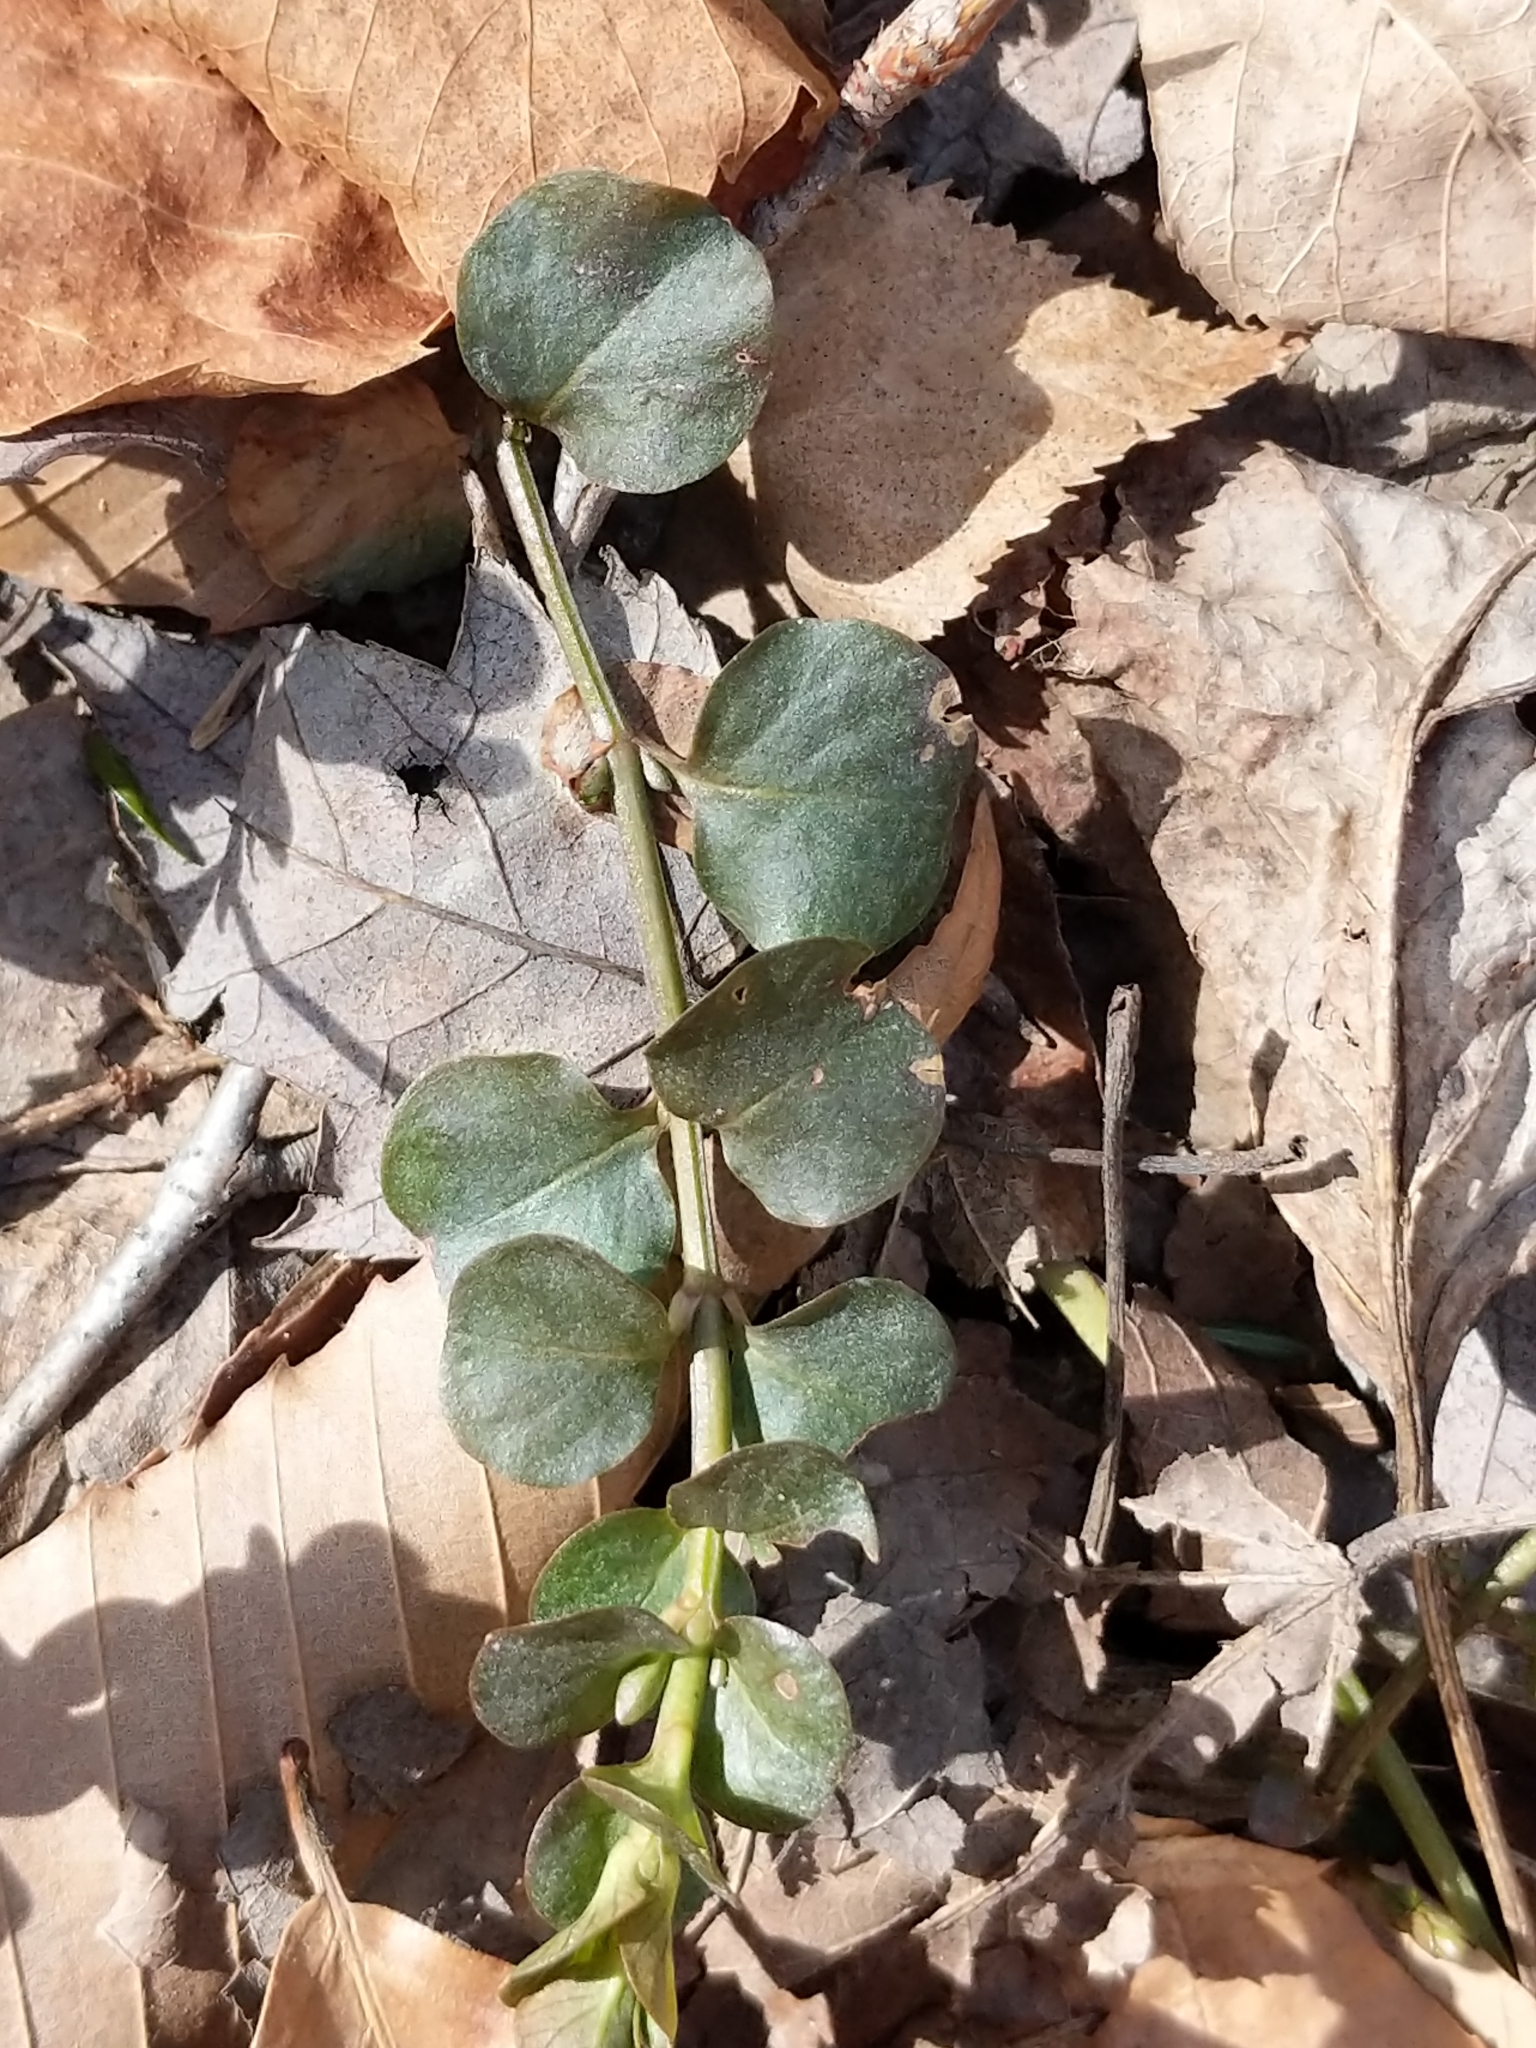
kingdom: Plantae
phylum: Tracheophyta
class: Magnoliopsida
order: Ericales
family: Primulaceae
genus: Lysimachia
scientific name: Lysimachia nummularia
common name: Moneywort
